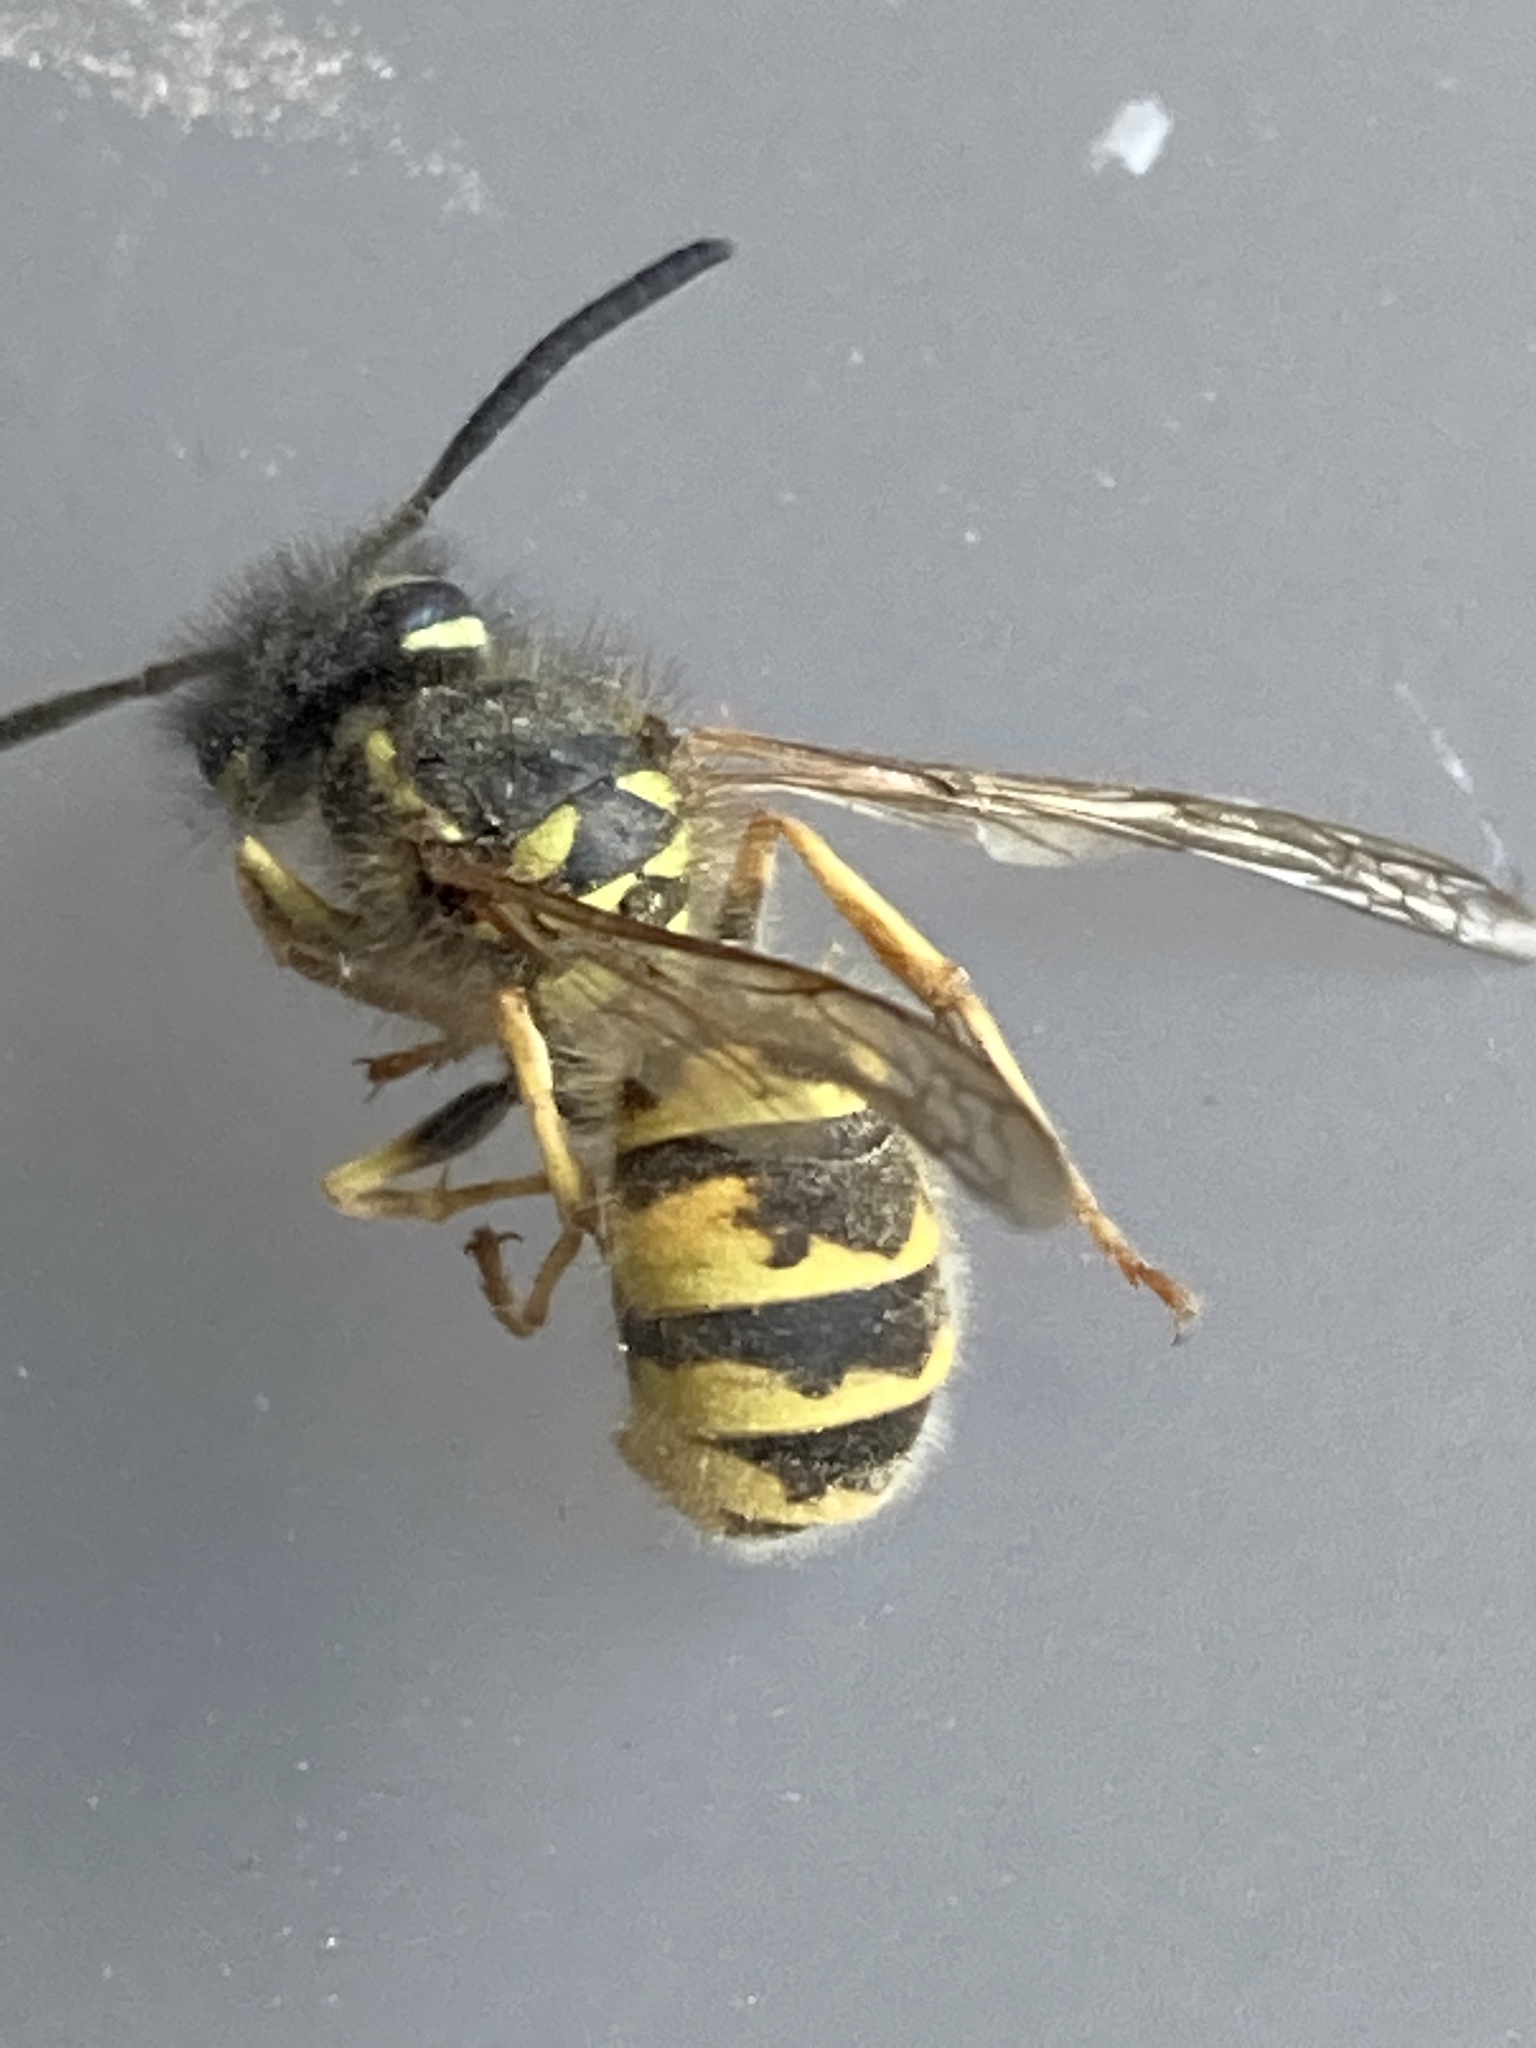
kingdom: Animalia
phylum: Arthropoda
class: Insecta
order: Hymenoptera
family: Vespidae
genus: Vespula
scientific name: Vespula vulgaris
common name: Common wasp
